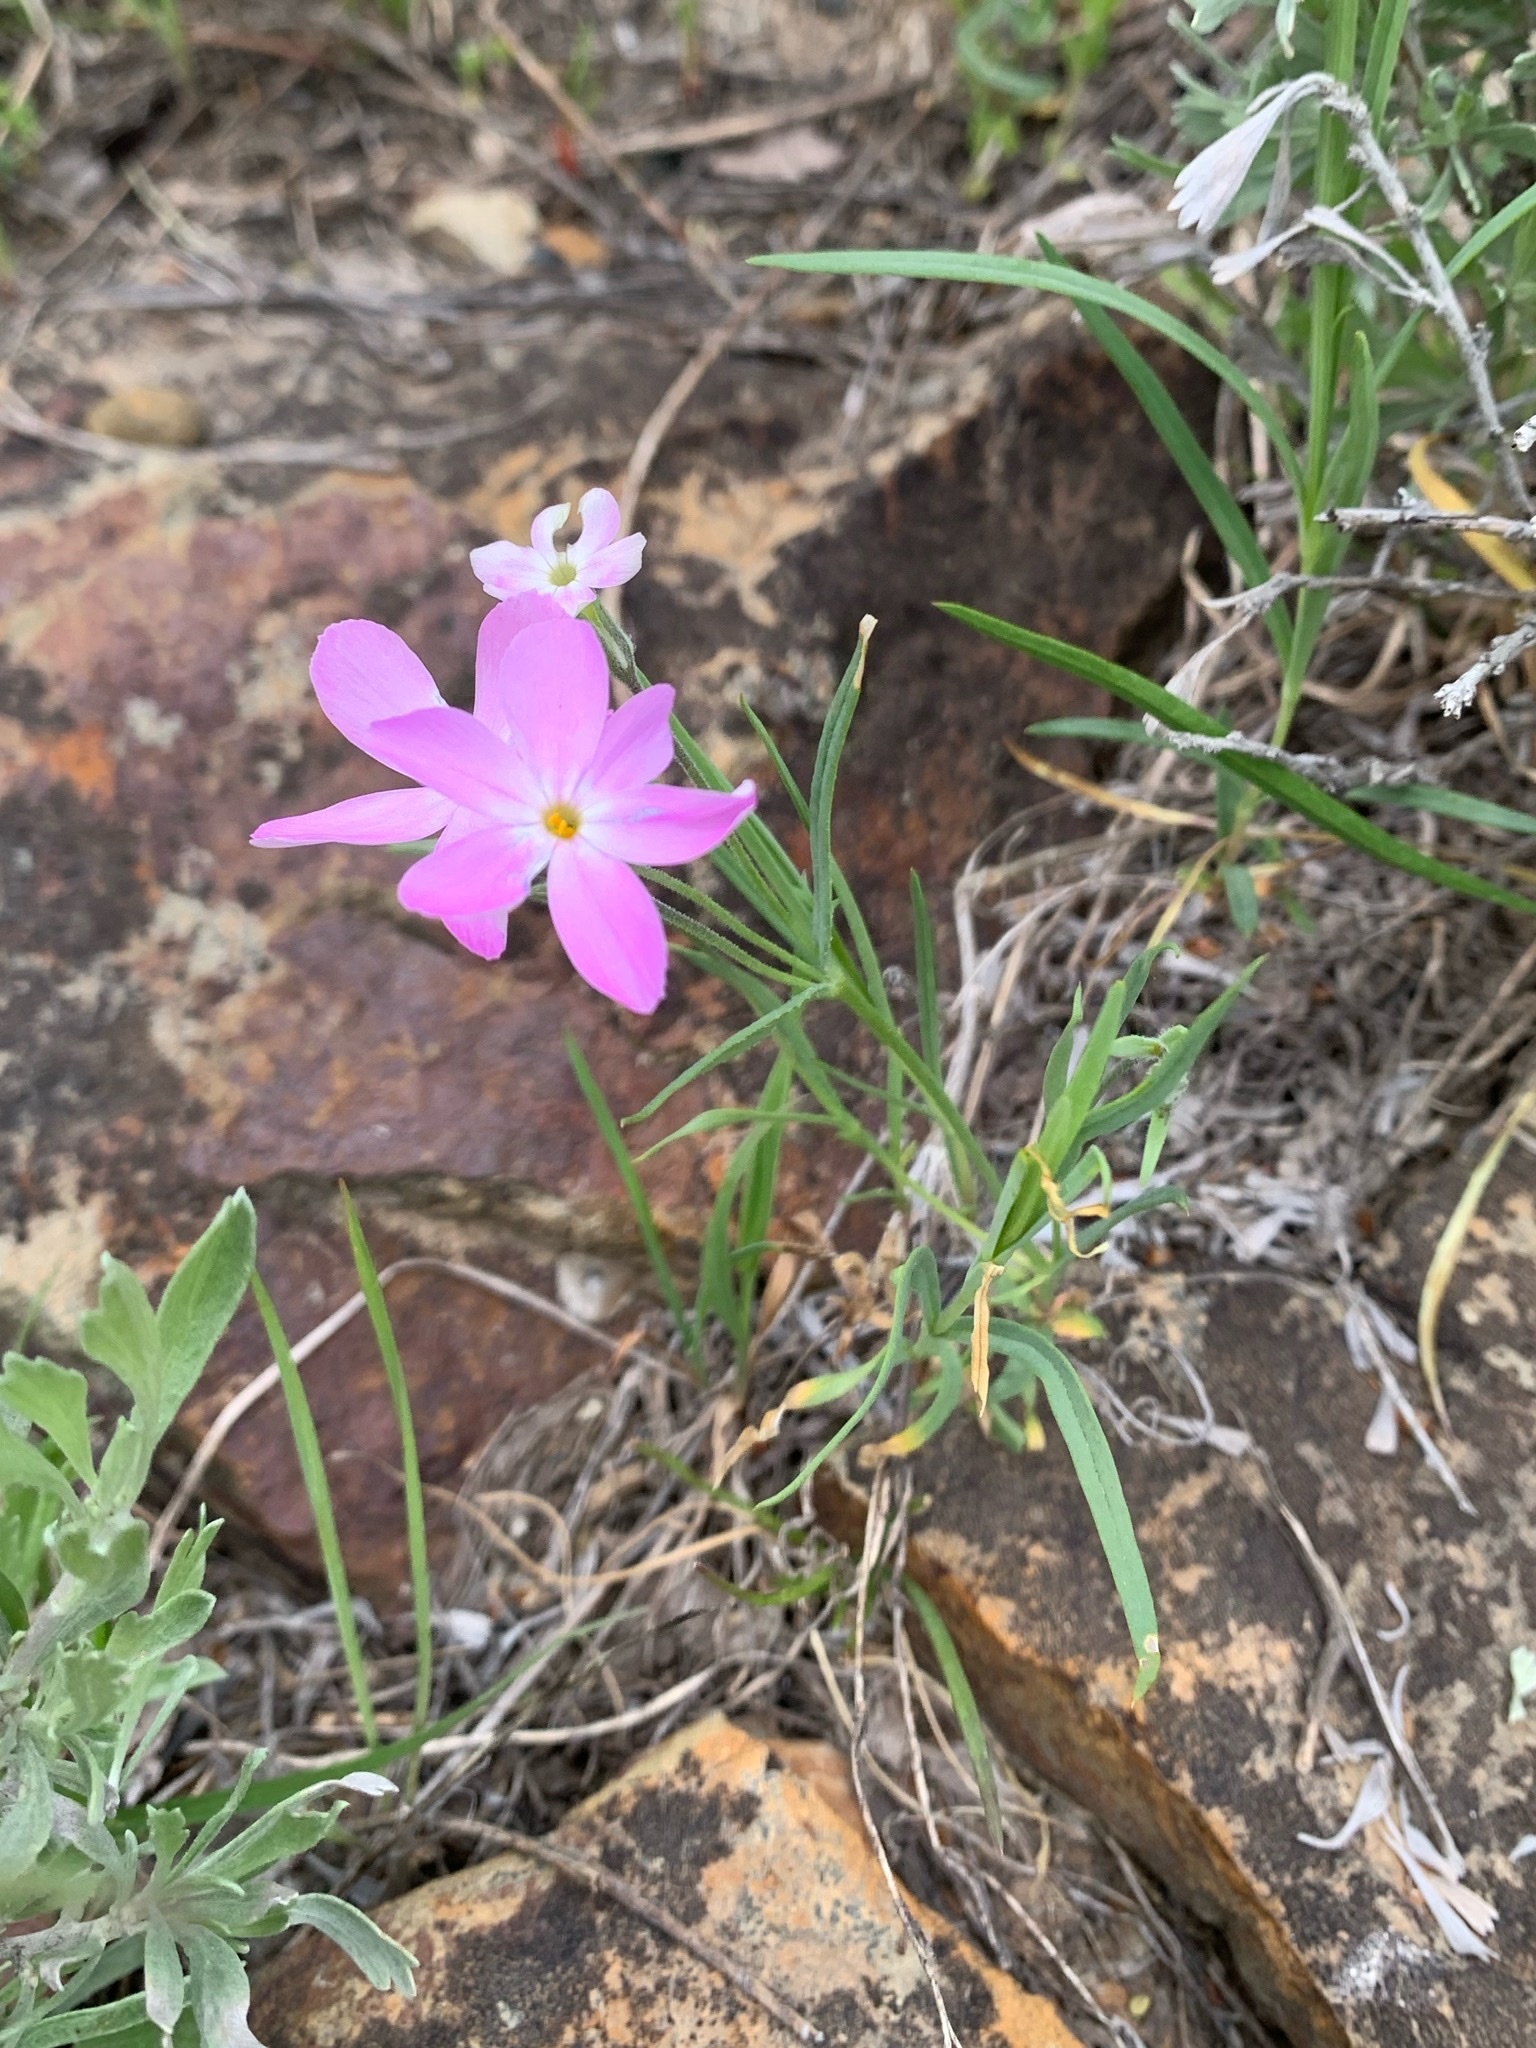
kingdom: Plantae
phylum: Tracheophyta
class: Magnoliopsida
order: Ericales
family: Polemoniaceae
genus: Phlox
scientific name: Phlox longifolia
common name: Longleaf phlox
